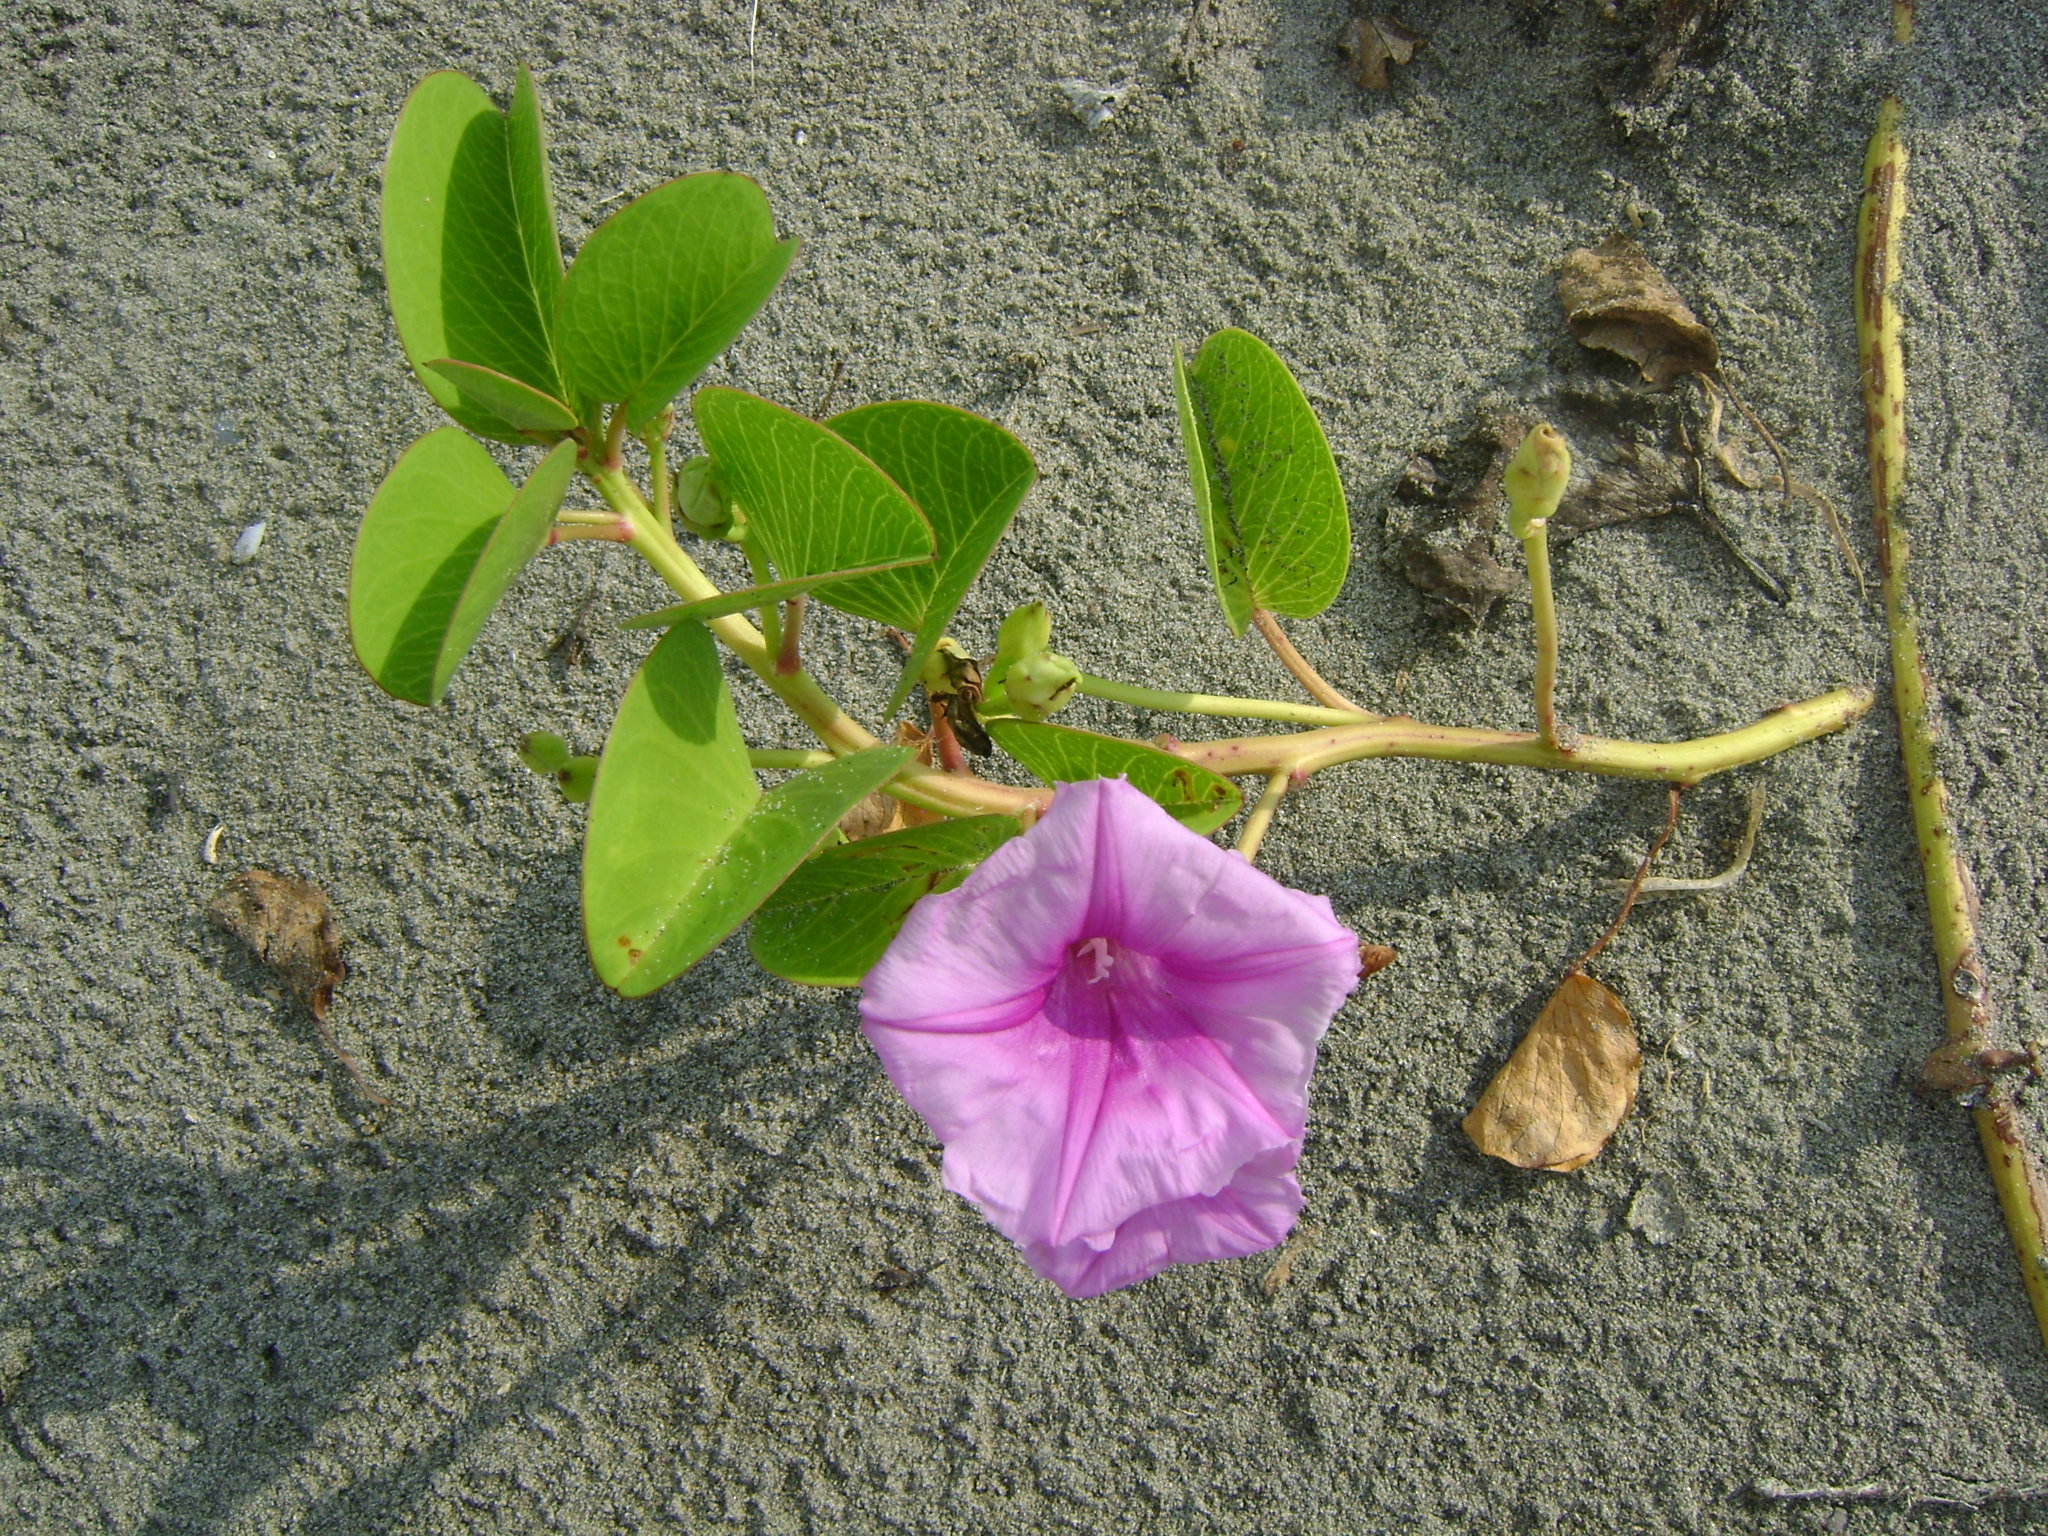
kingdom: Plantae
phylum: Tracheophyta
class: Magnoliopsida
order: Solanales
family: Convolvulaceae
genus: Ipomoea
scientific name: Ipomoea pes-caprae
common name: Beach morning glory
